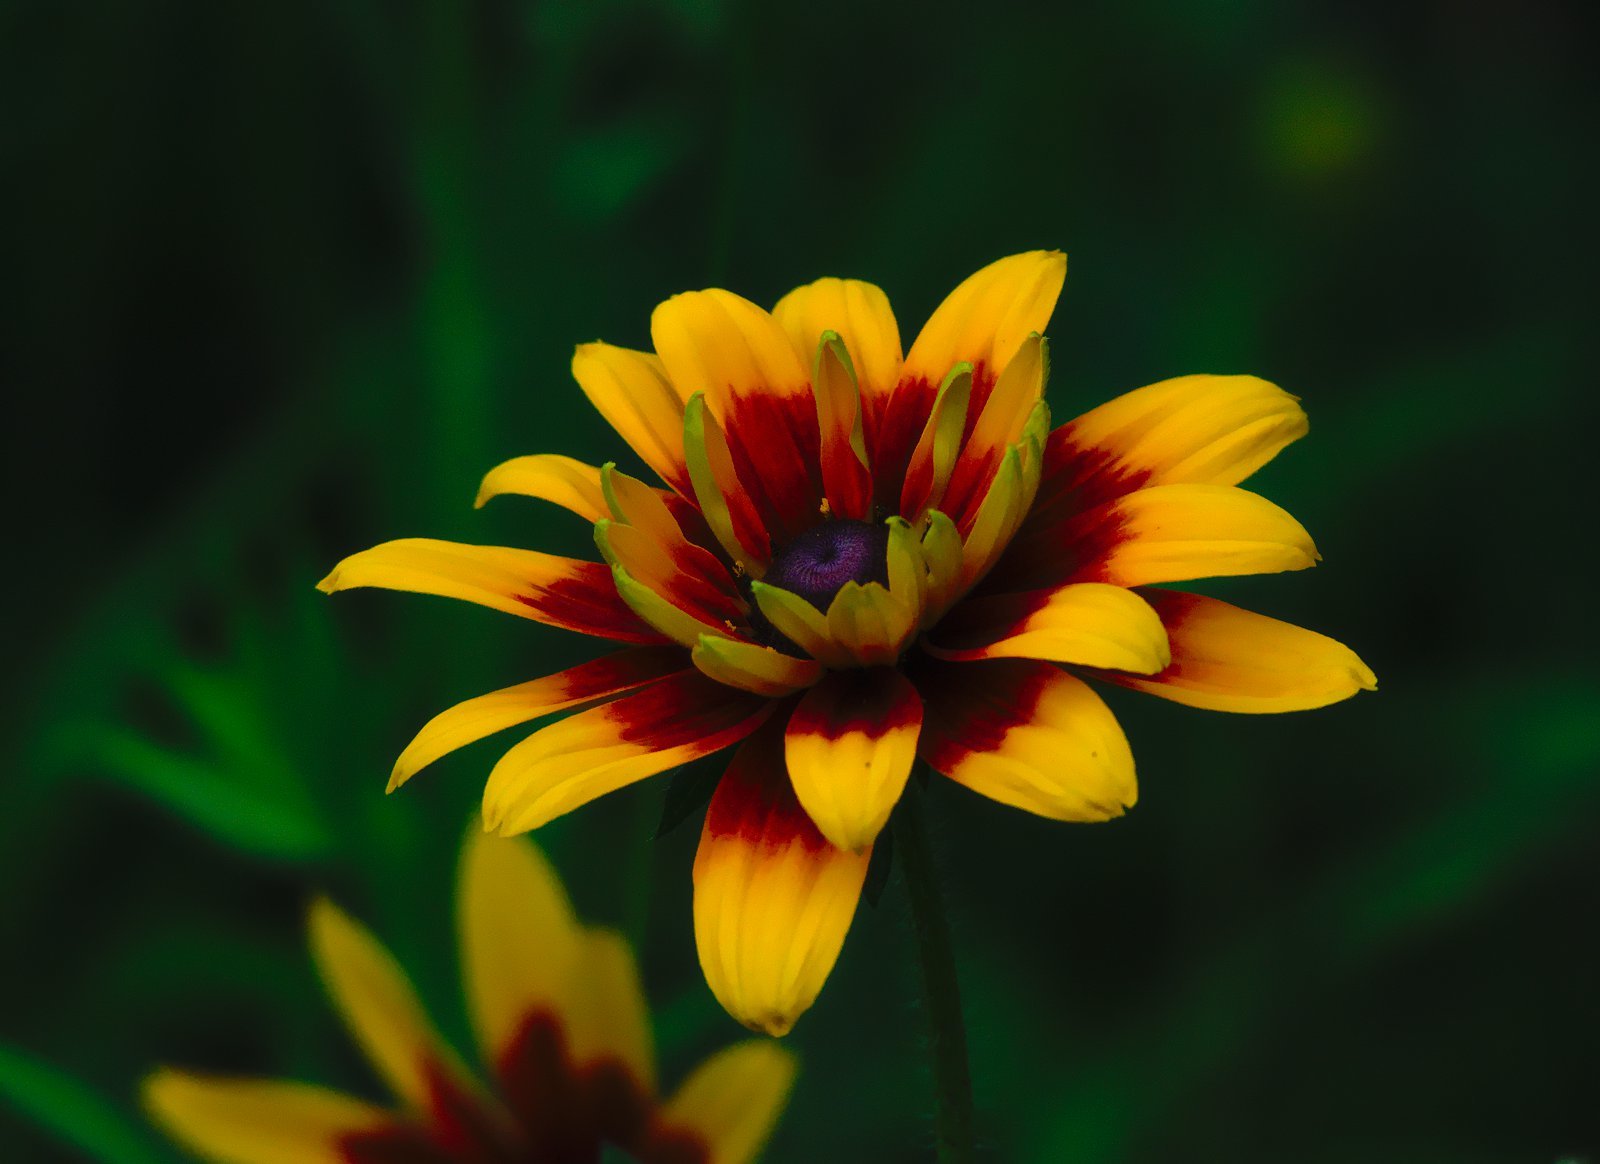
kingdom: Plantae
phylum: Tracheophyta
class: Magnoliopsida
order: Asterales
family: Asteraceae
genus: Rudbeckia
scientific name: Rudbeckia hirta
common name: Black-eyed-susan
